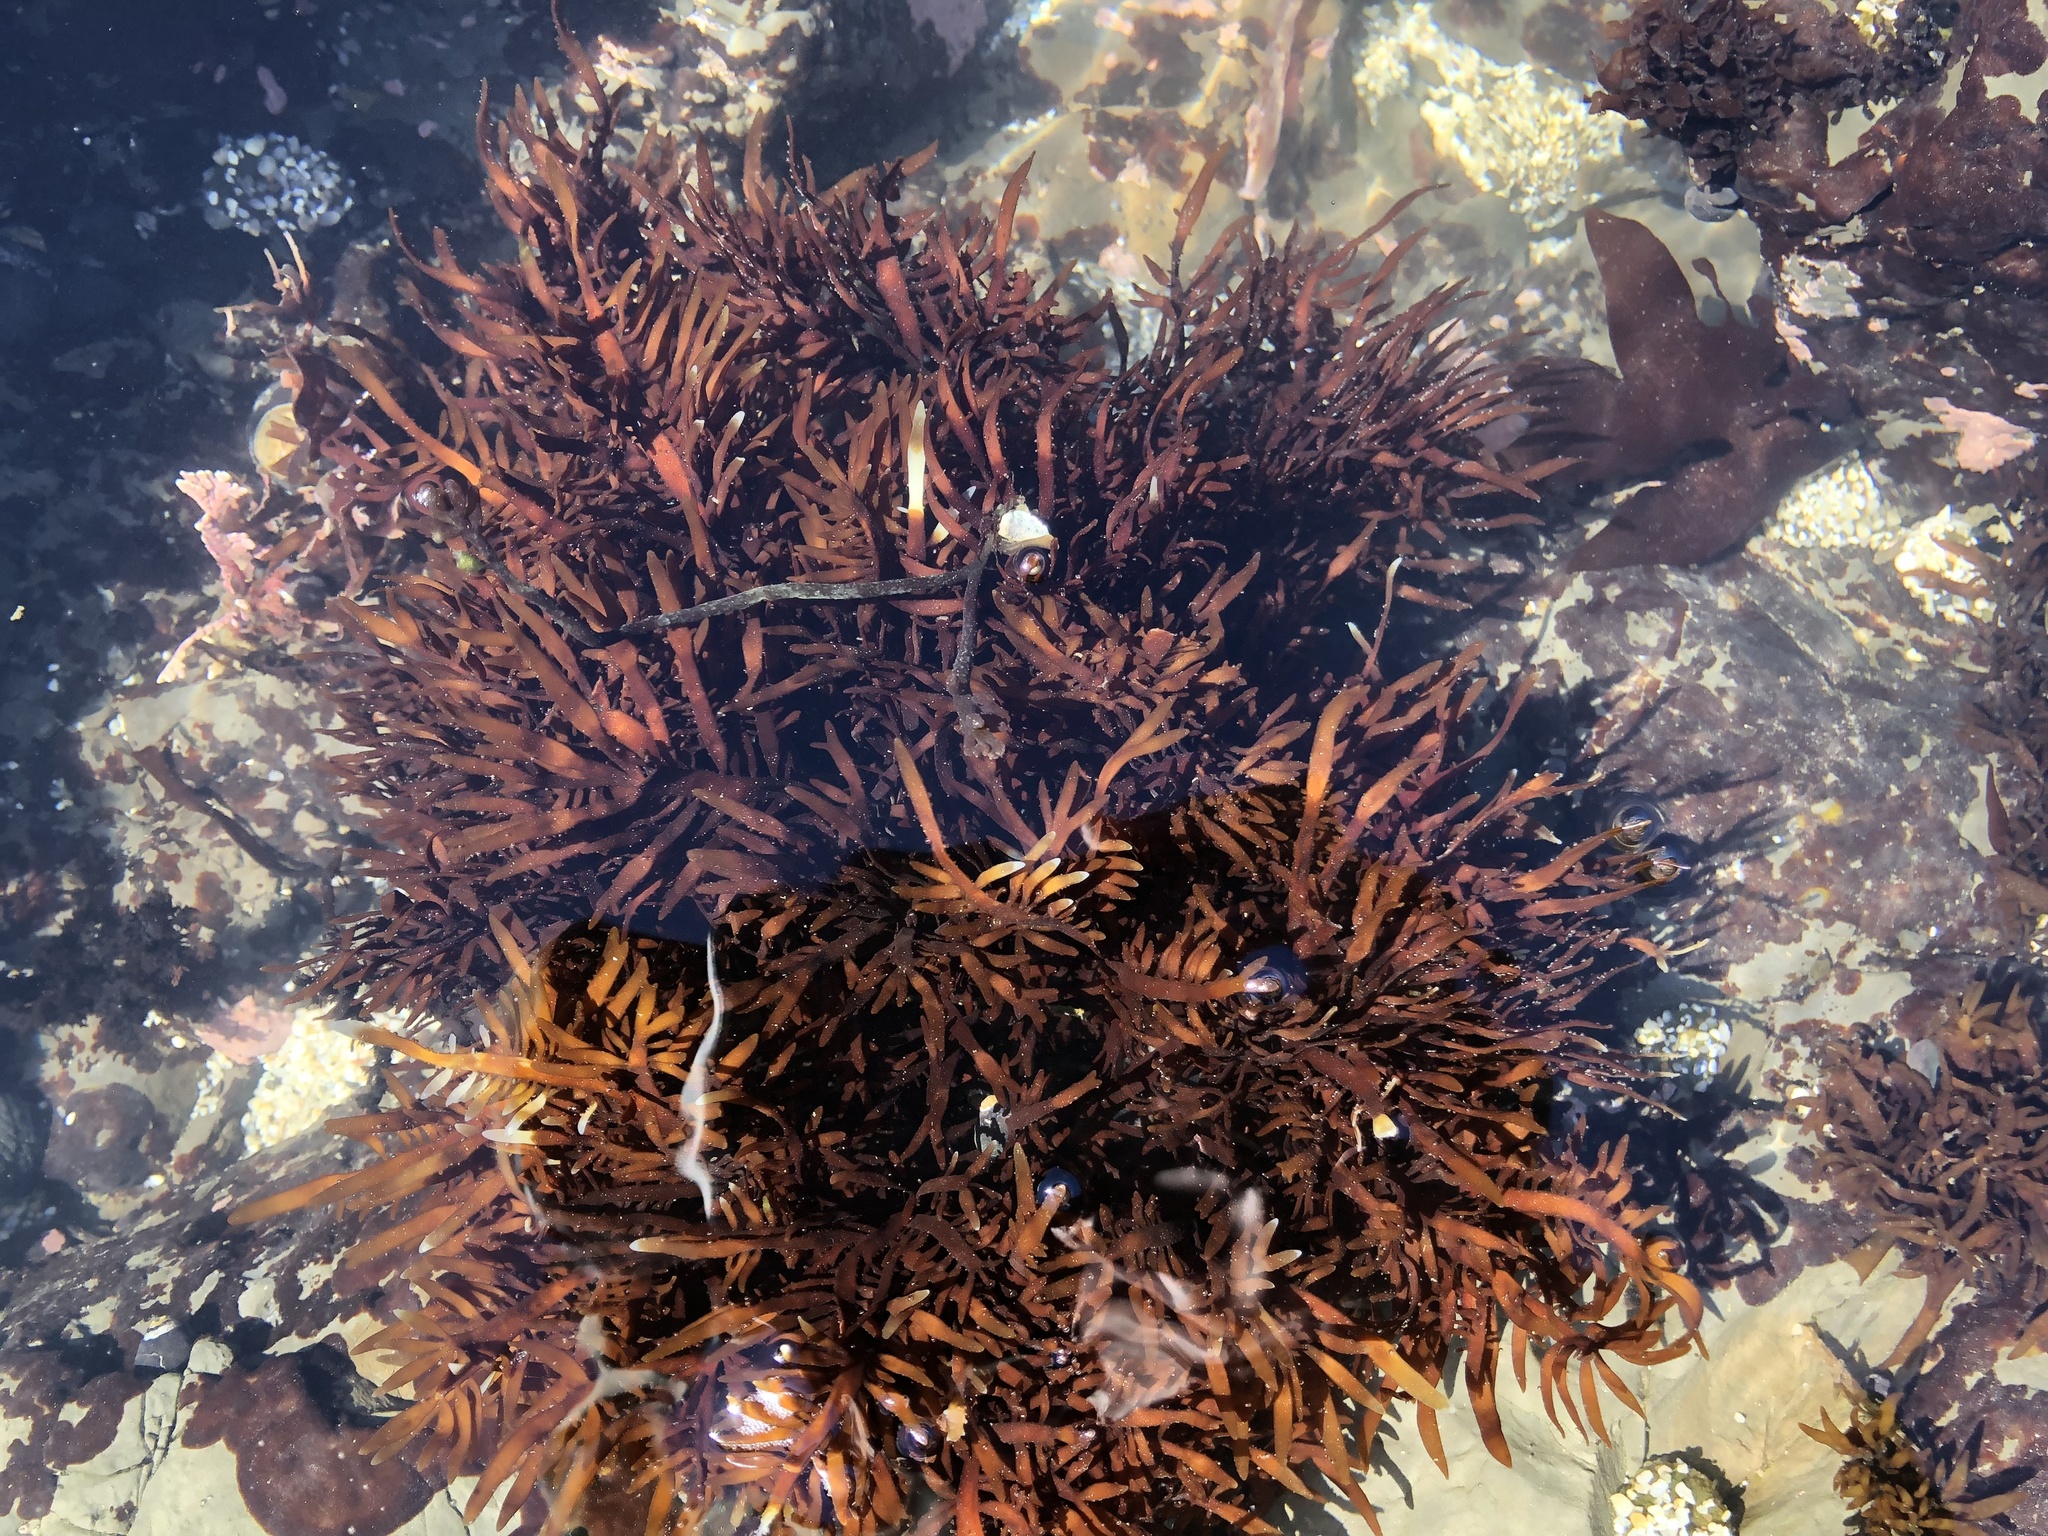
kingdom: Plantae
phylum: Rhodophyta
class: Florideophyceae
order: Halymeniales
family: Halymeniaceae
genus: Grateloupia
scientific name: Grateloupia Prionitis lanceolata
